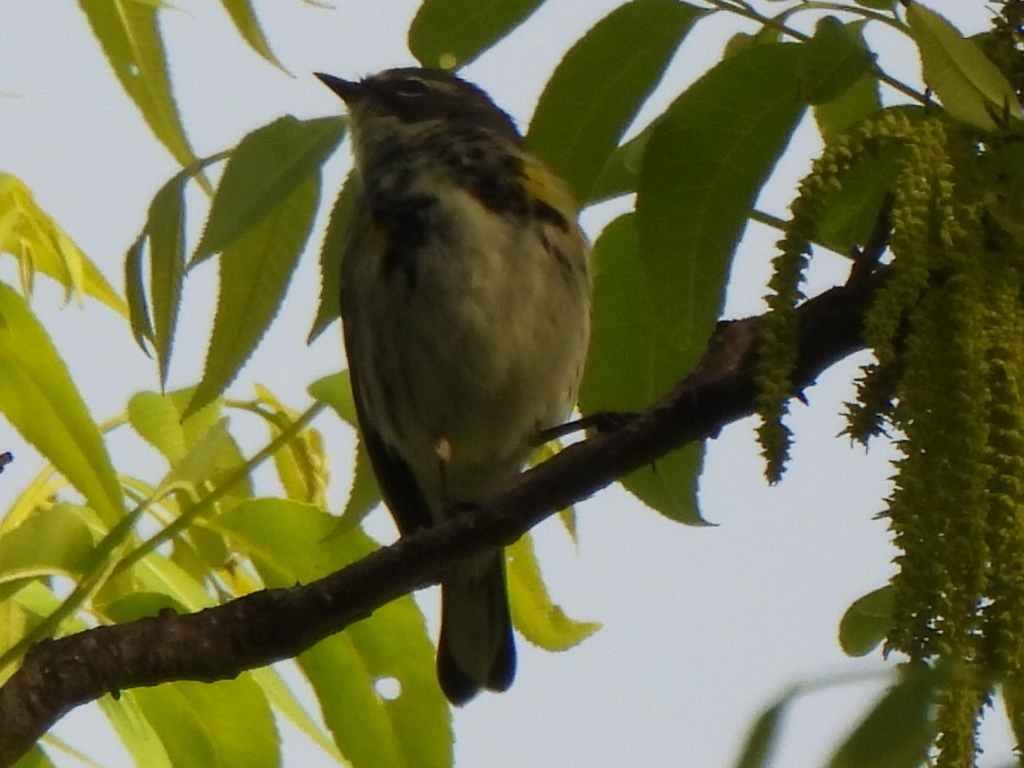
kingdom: Animalia
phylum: Chordata
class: Aves
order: Passeriformes
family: Parulidae
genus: Setophaga
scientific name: Setophaga coronata
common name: Myrtle warbler
